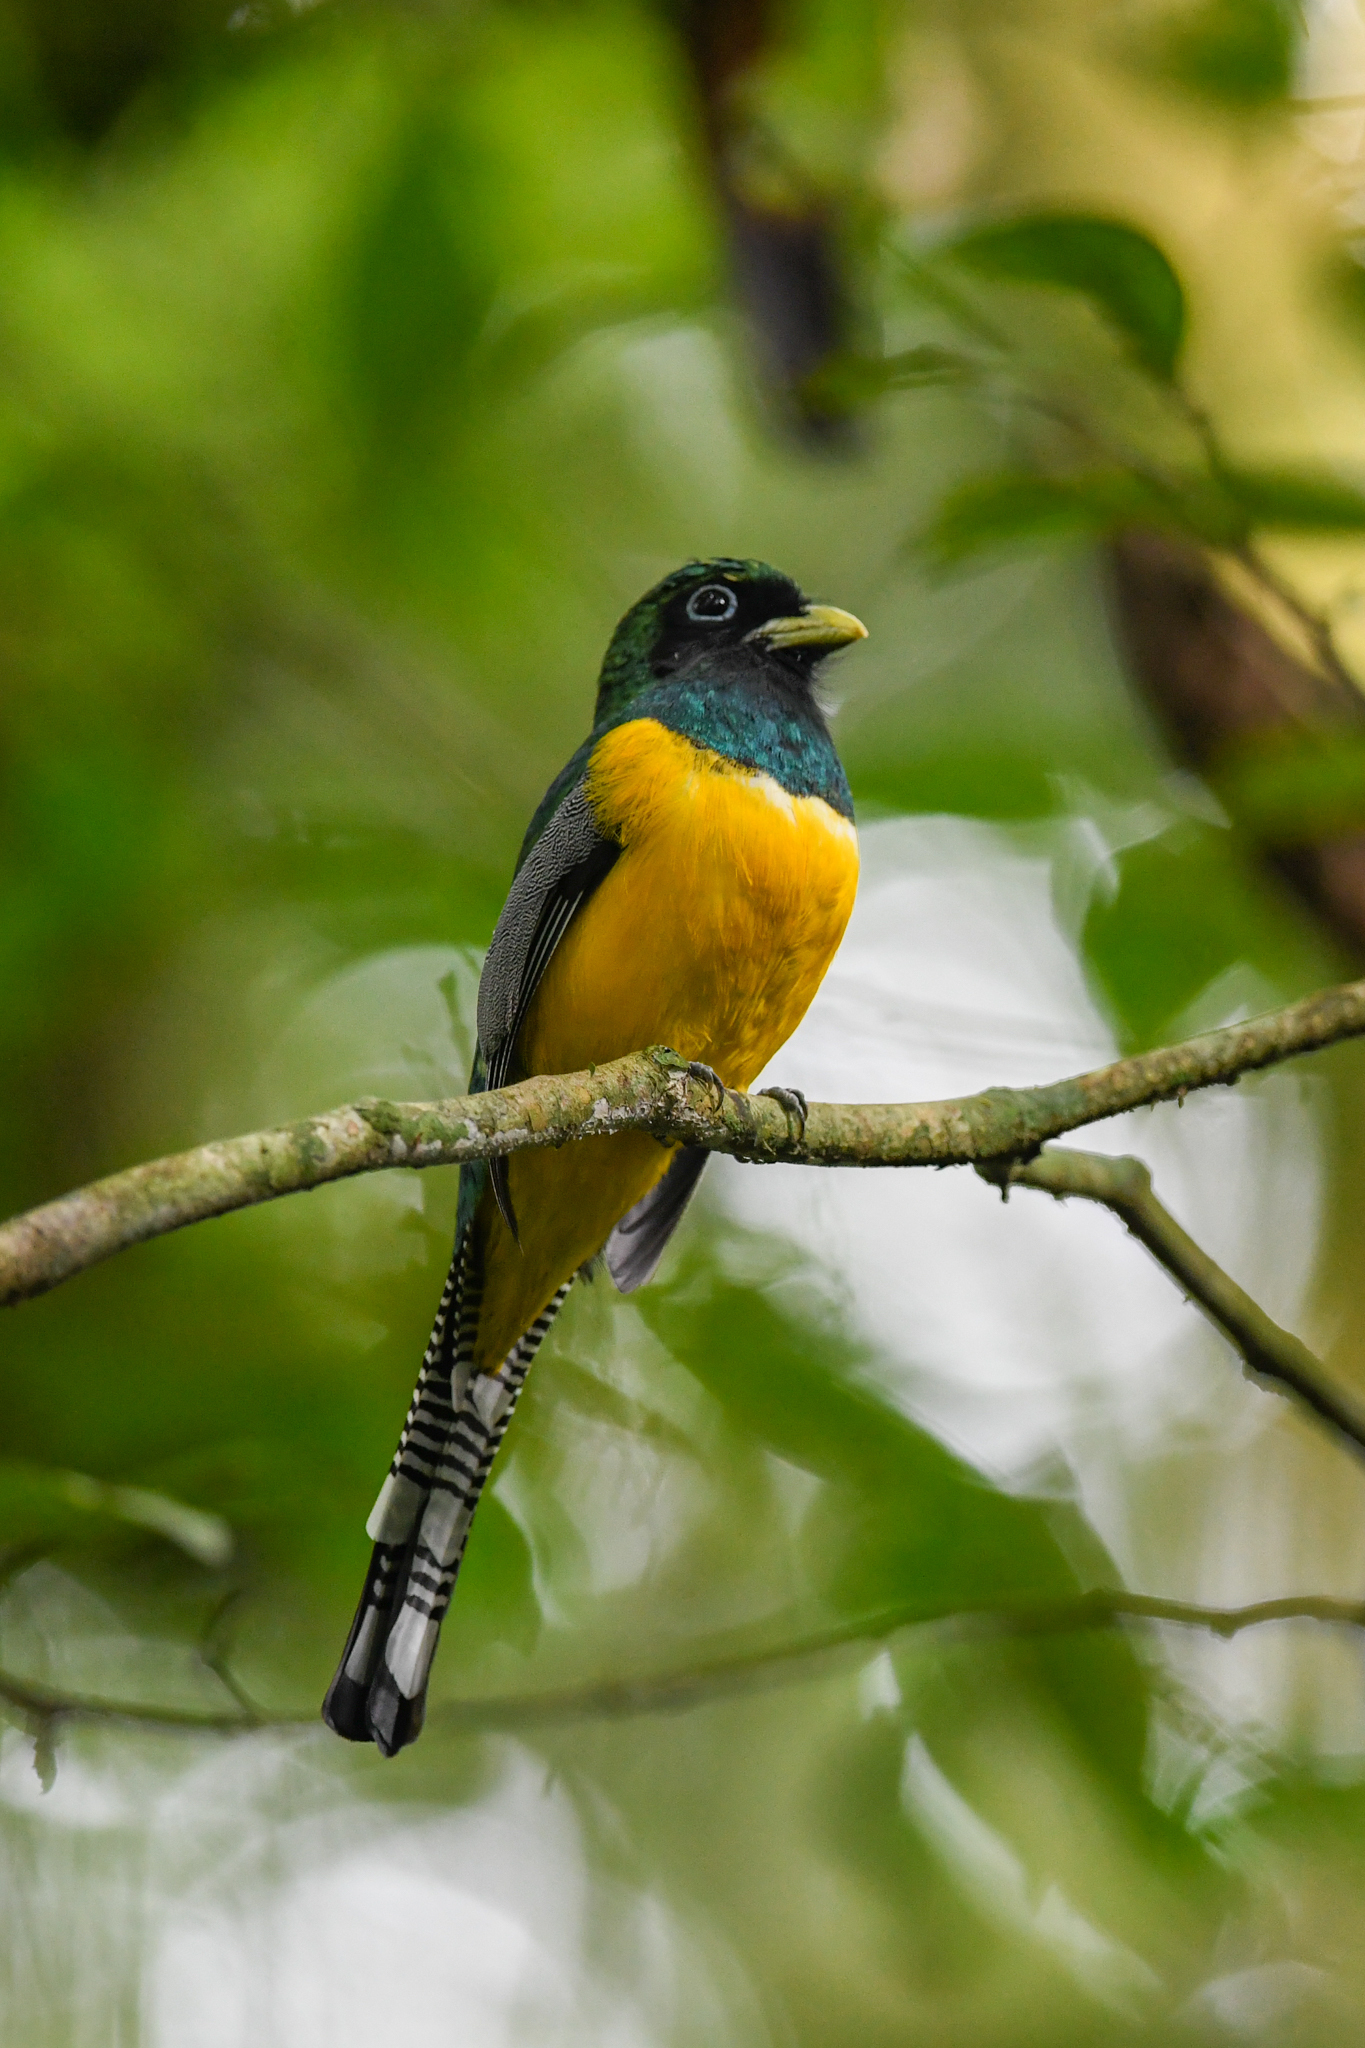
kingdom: Animalia
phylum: Chordata
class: Aves
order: Trogoniformes
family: Trogonidae
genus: Trogon
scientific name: Trogon rufus
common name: Black-throated trogon
